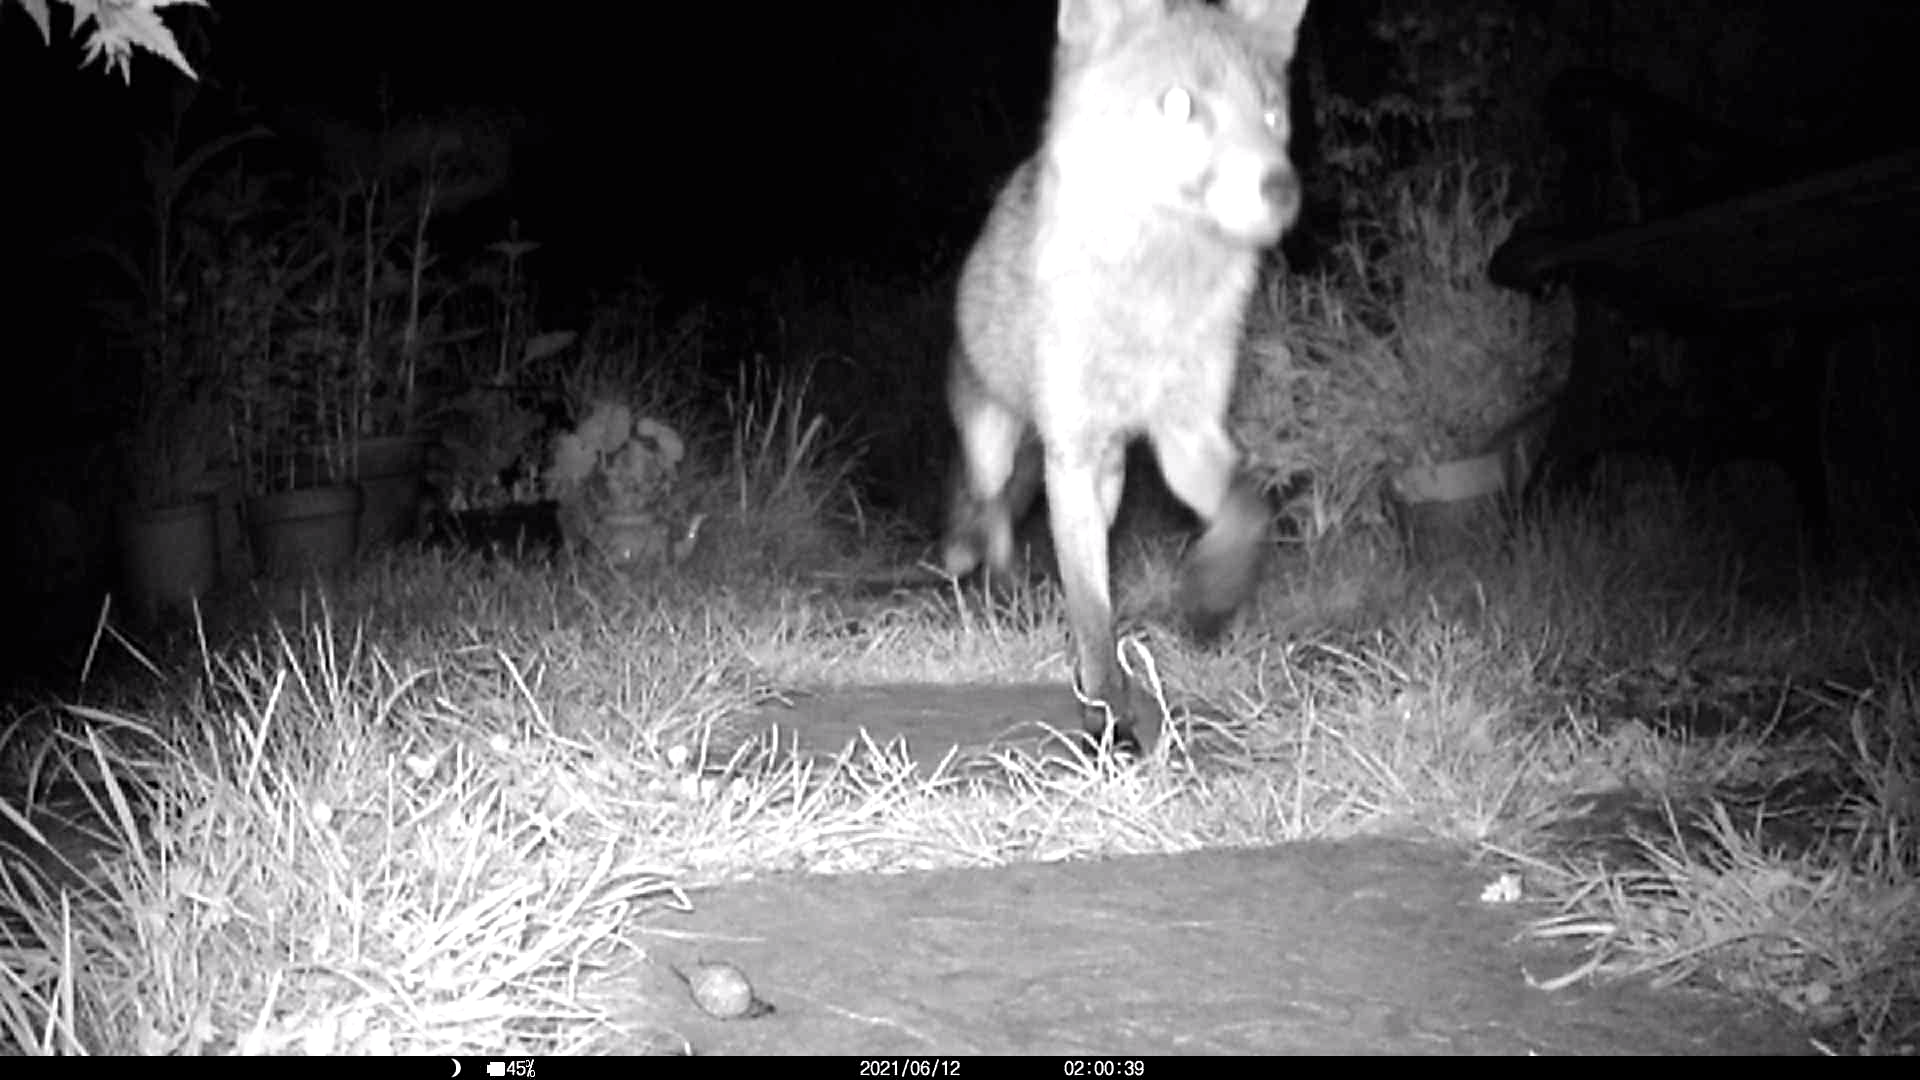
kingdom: Animalia
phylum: Chordata
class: Mammalia
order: Carnivora
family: Canidae
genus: Vulpes
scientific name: Vulpes vulpes
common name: Red fox
